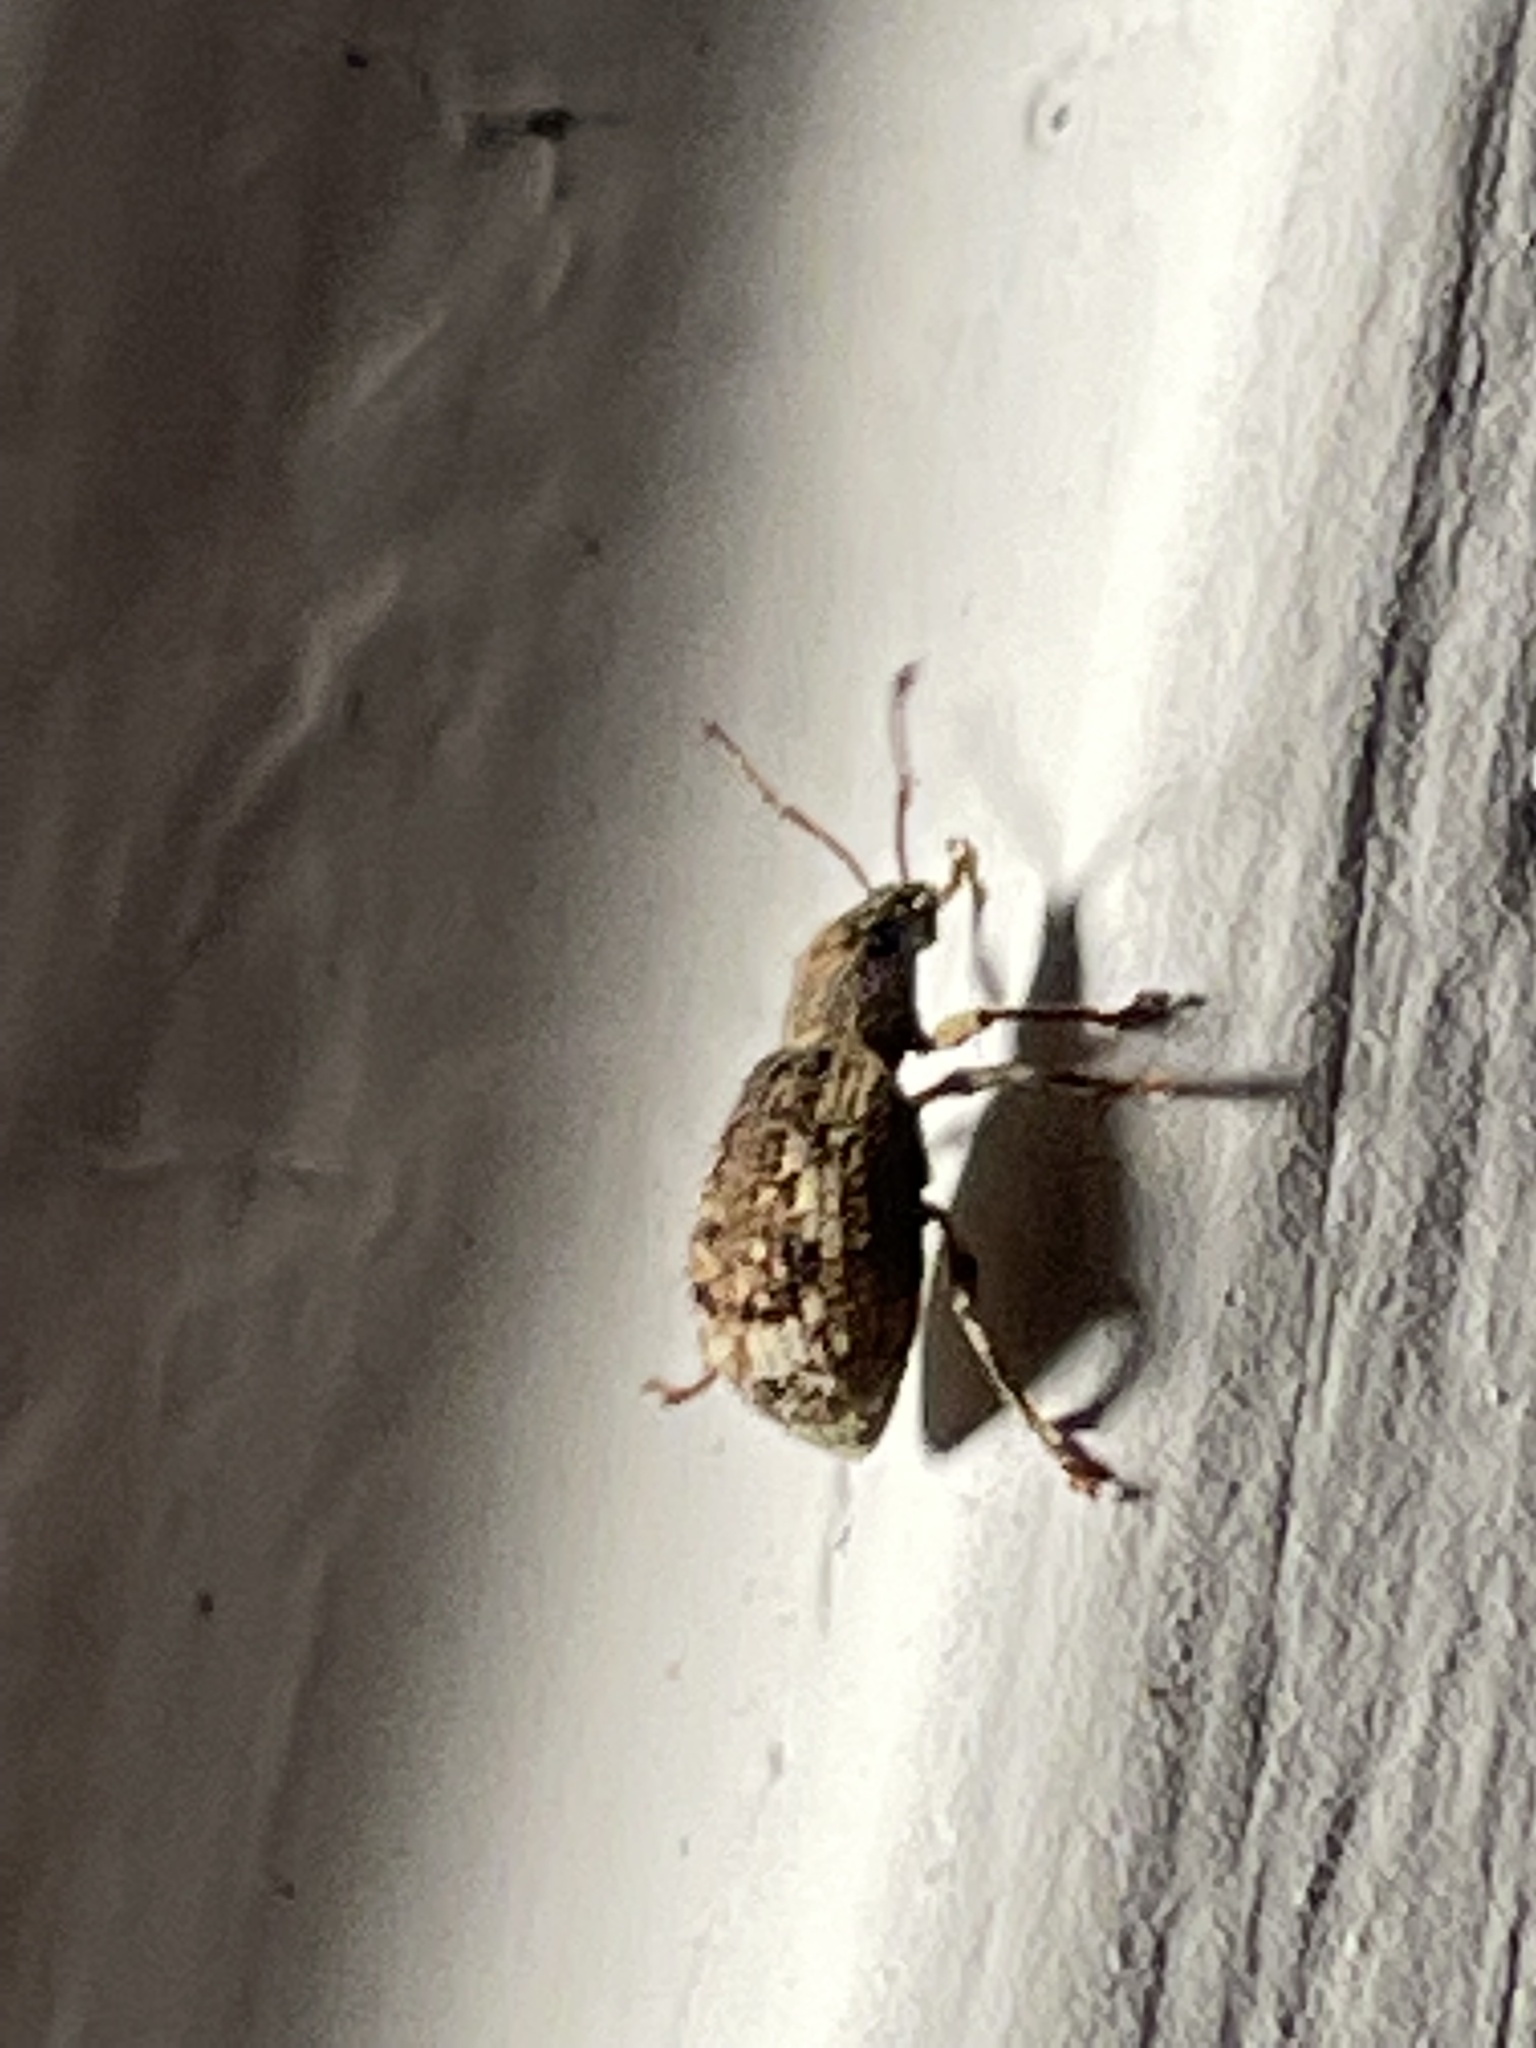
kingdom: Animalia
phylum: Arthropoda
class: Insecta
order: Coleoptera
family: Curculionidae
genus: Pseudoedophrys
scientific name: Pseudoedophrys hilleri
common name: Weevil
